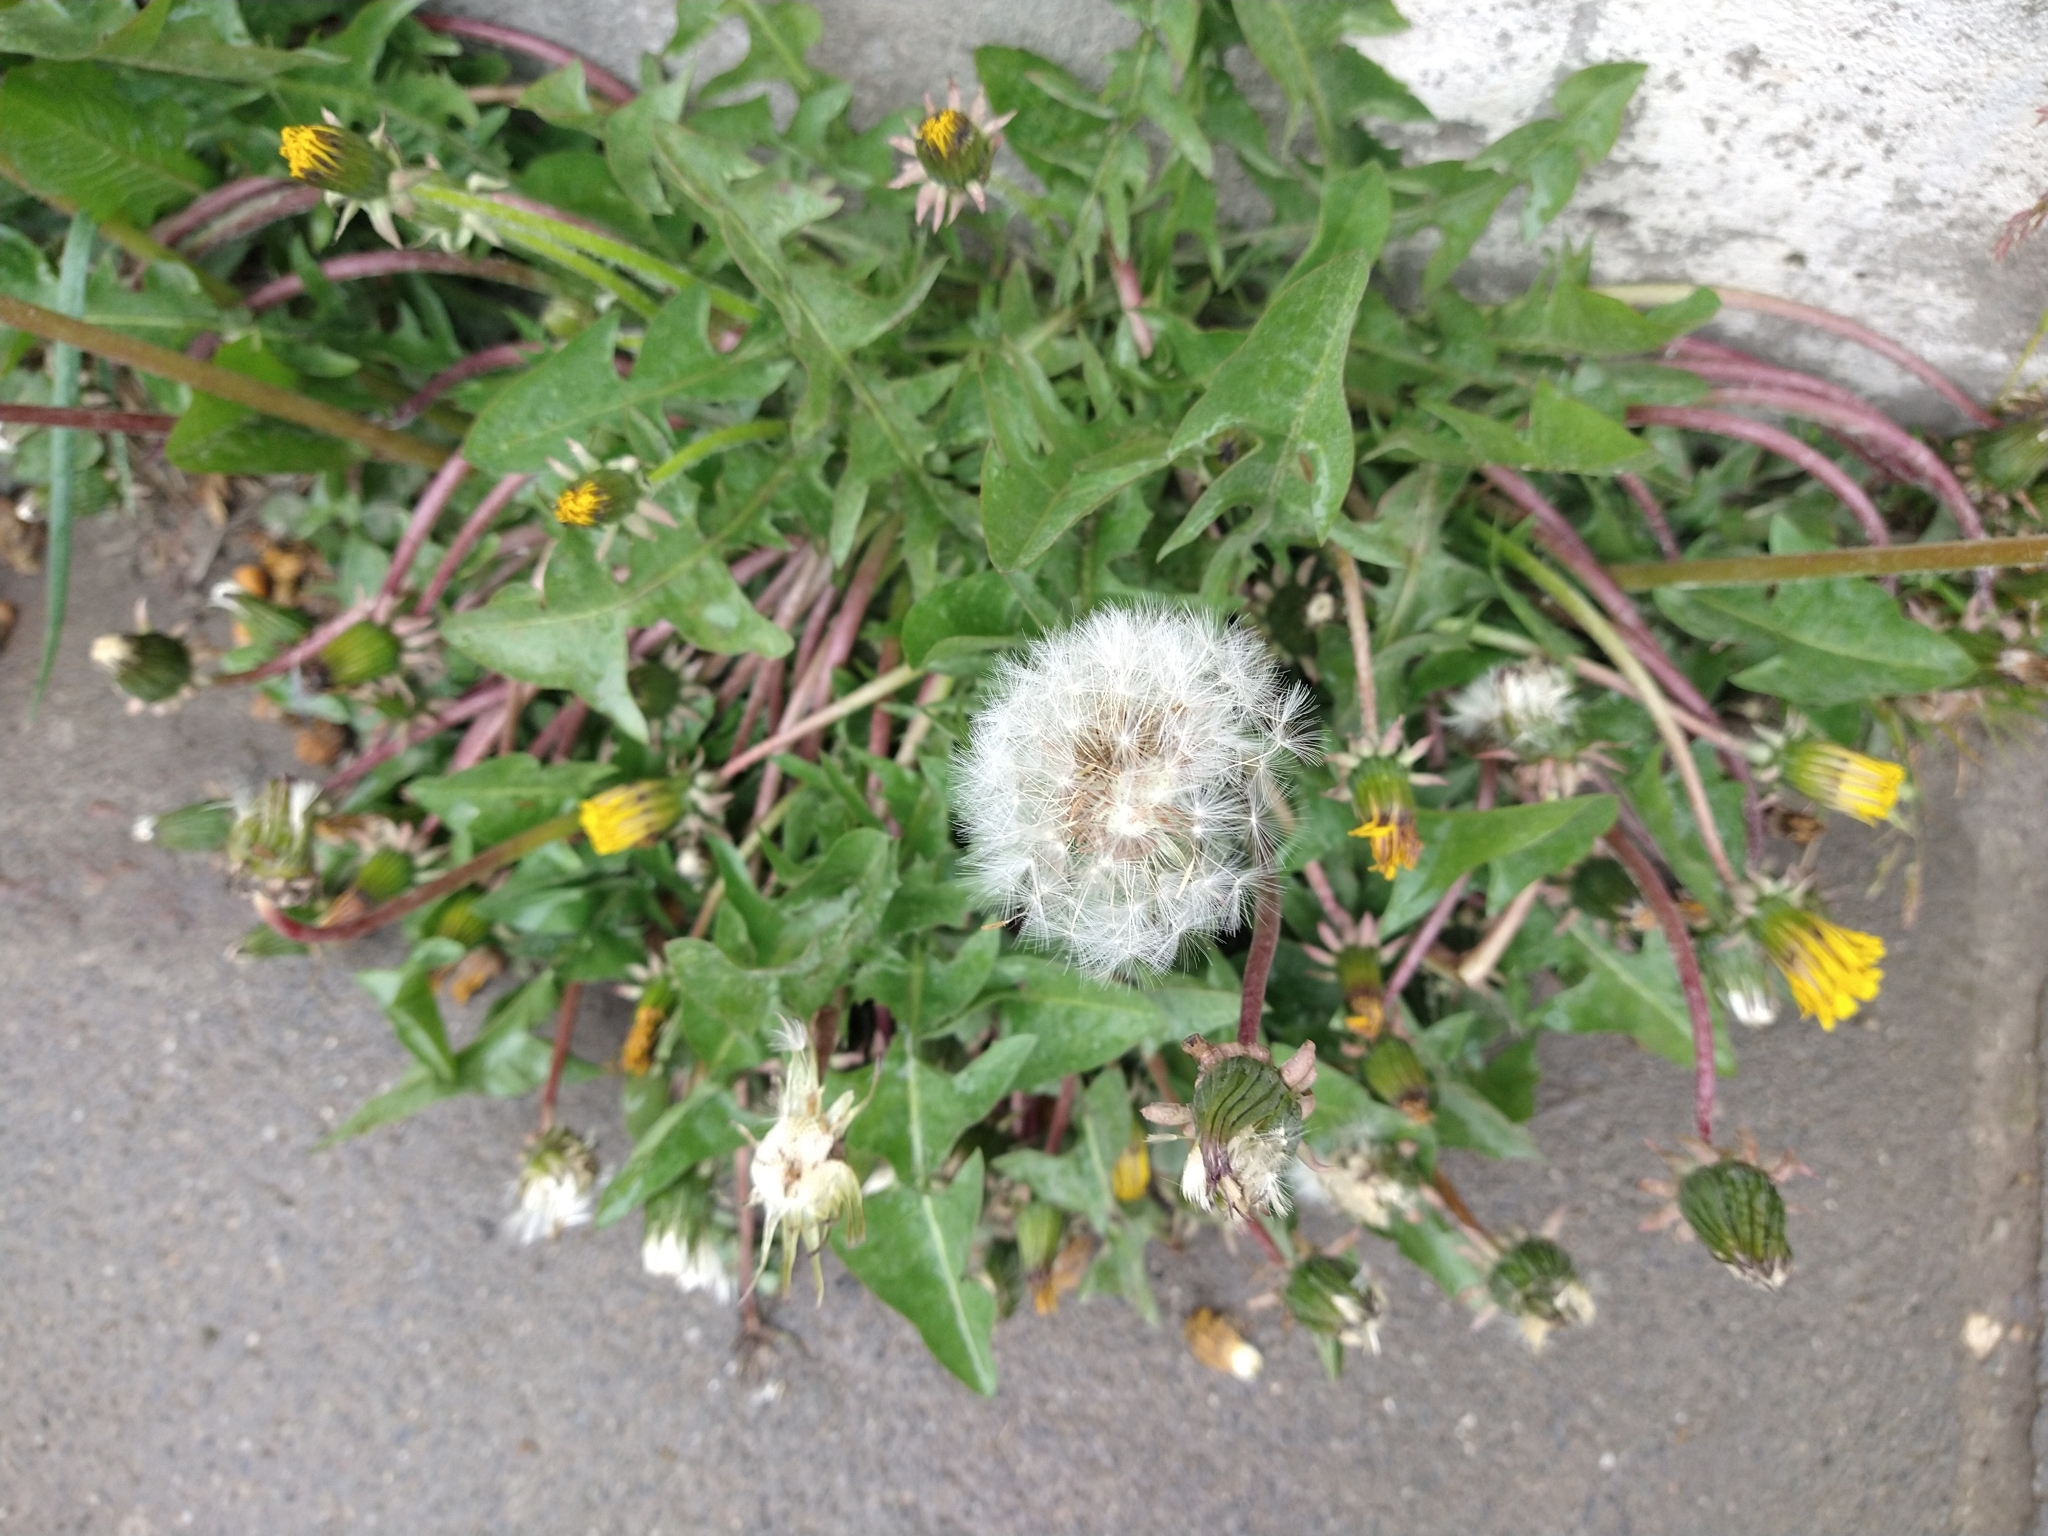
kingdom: Plantae
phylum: Tracheophyta
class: Magnoliopsida
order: Asterales
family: Asteraceae
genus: Taraxacum
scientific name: Taraxacum officinale
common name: Common dandelion
